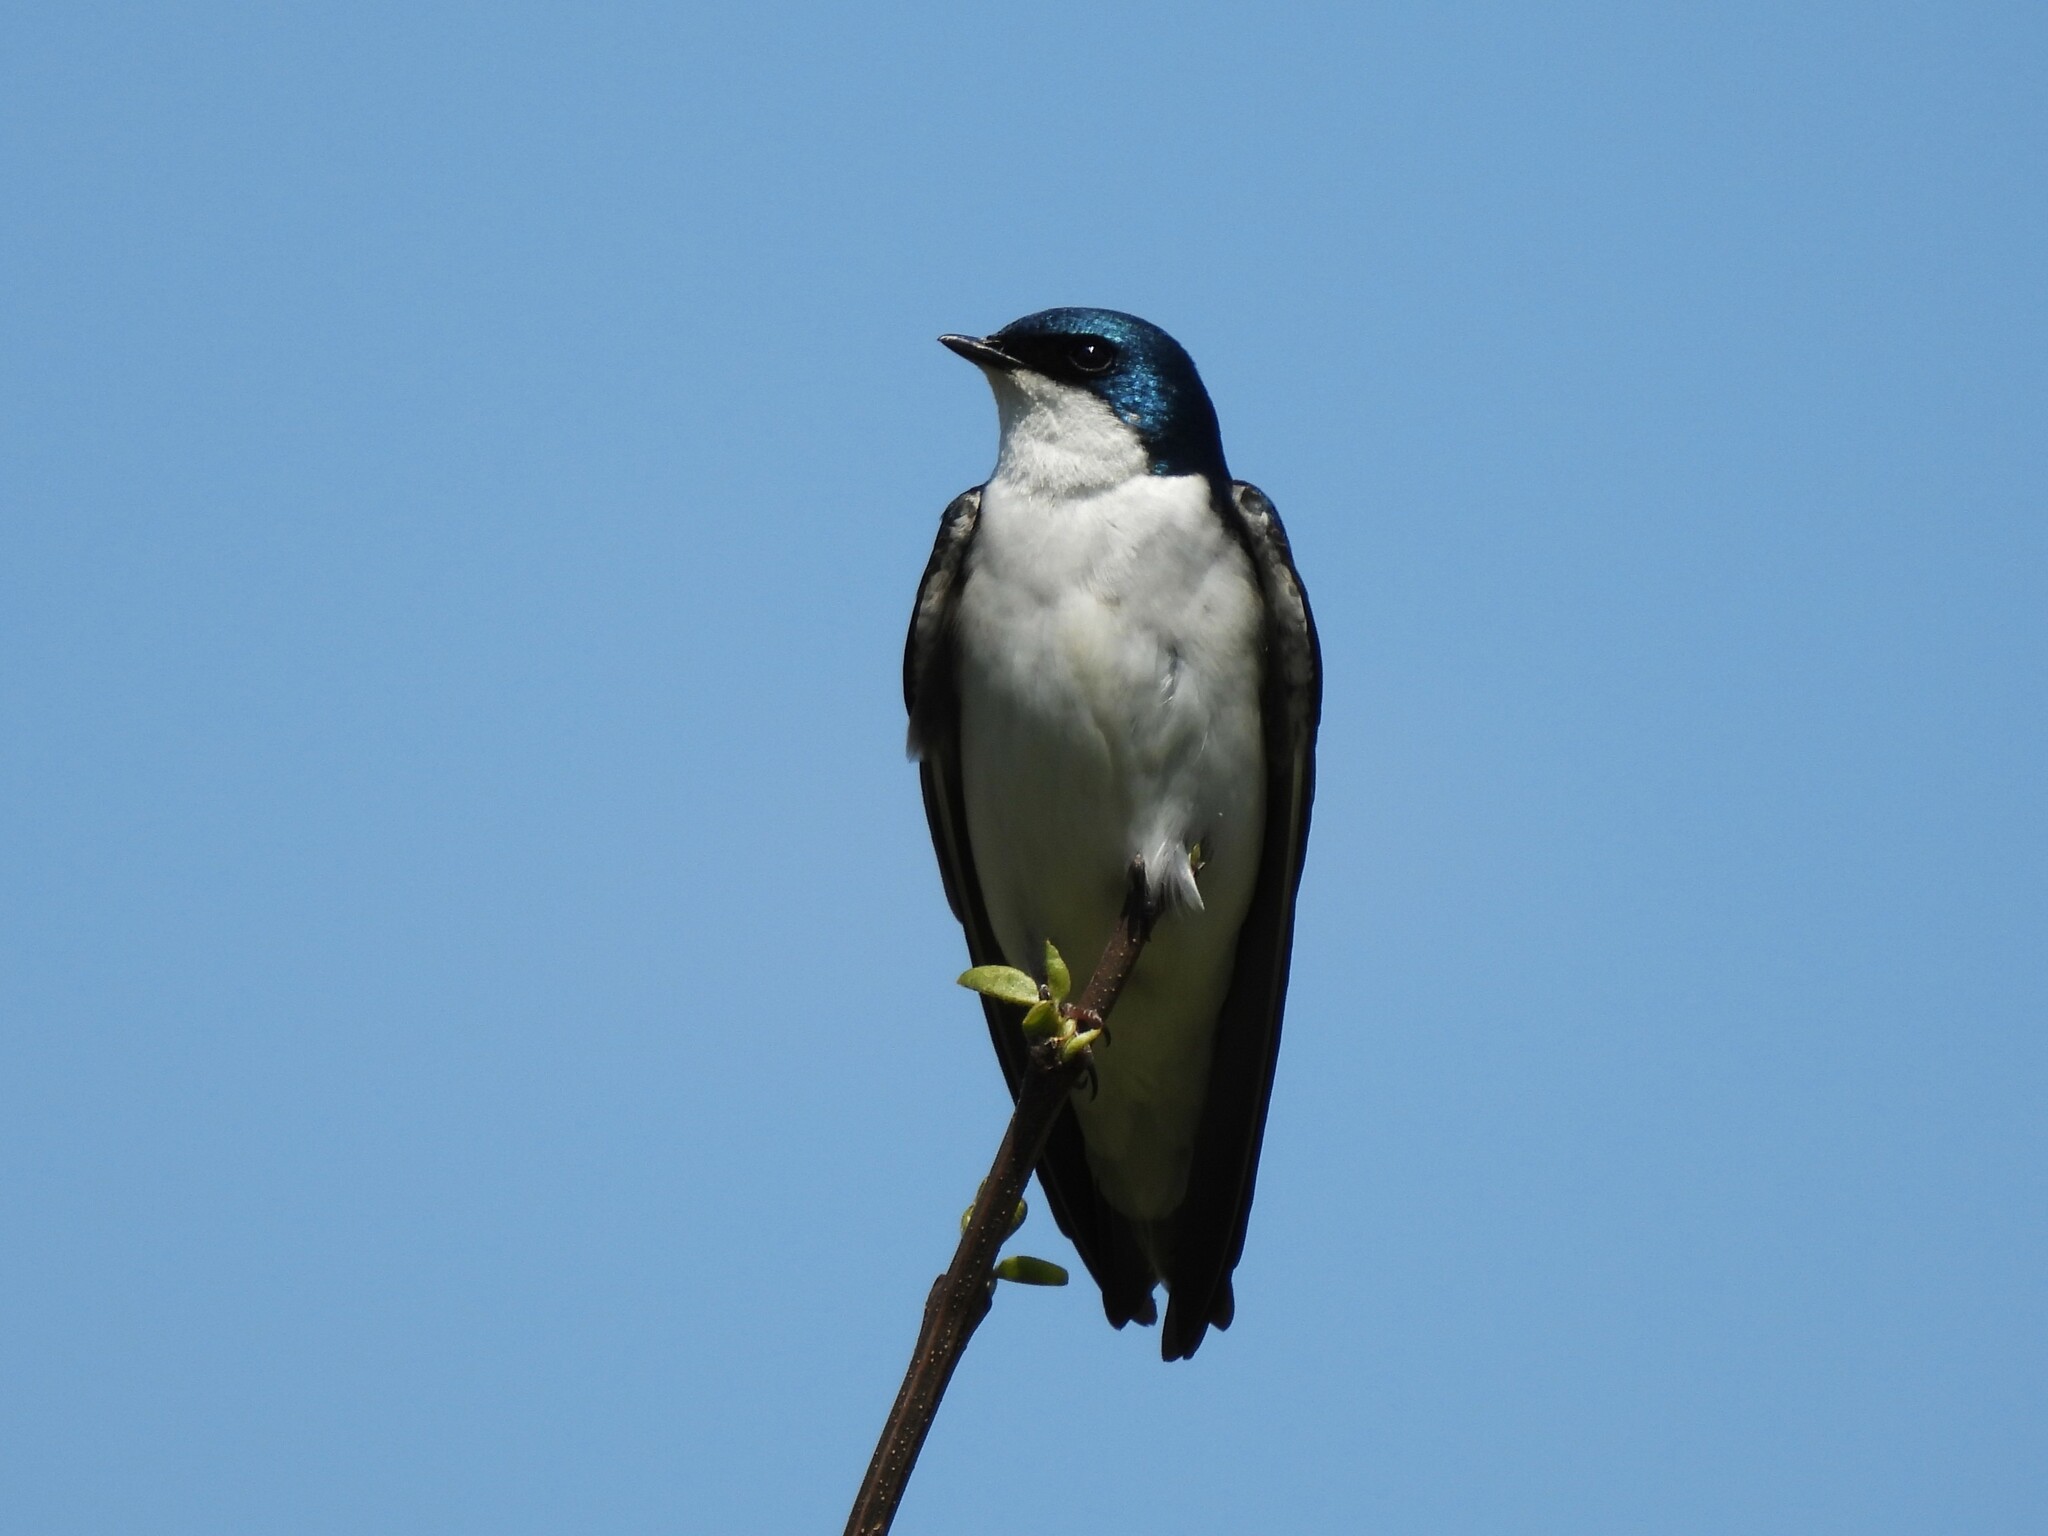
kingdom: Animalia
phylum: Chordata
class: Aves
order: Passeriformes
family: Hirundinidae
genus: Tachycineta
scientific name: Tachycineta bicolor
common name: Tree swallow
